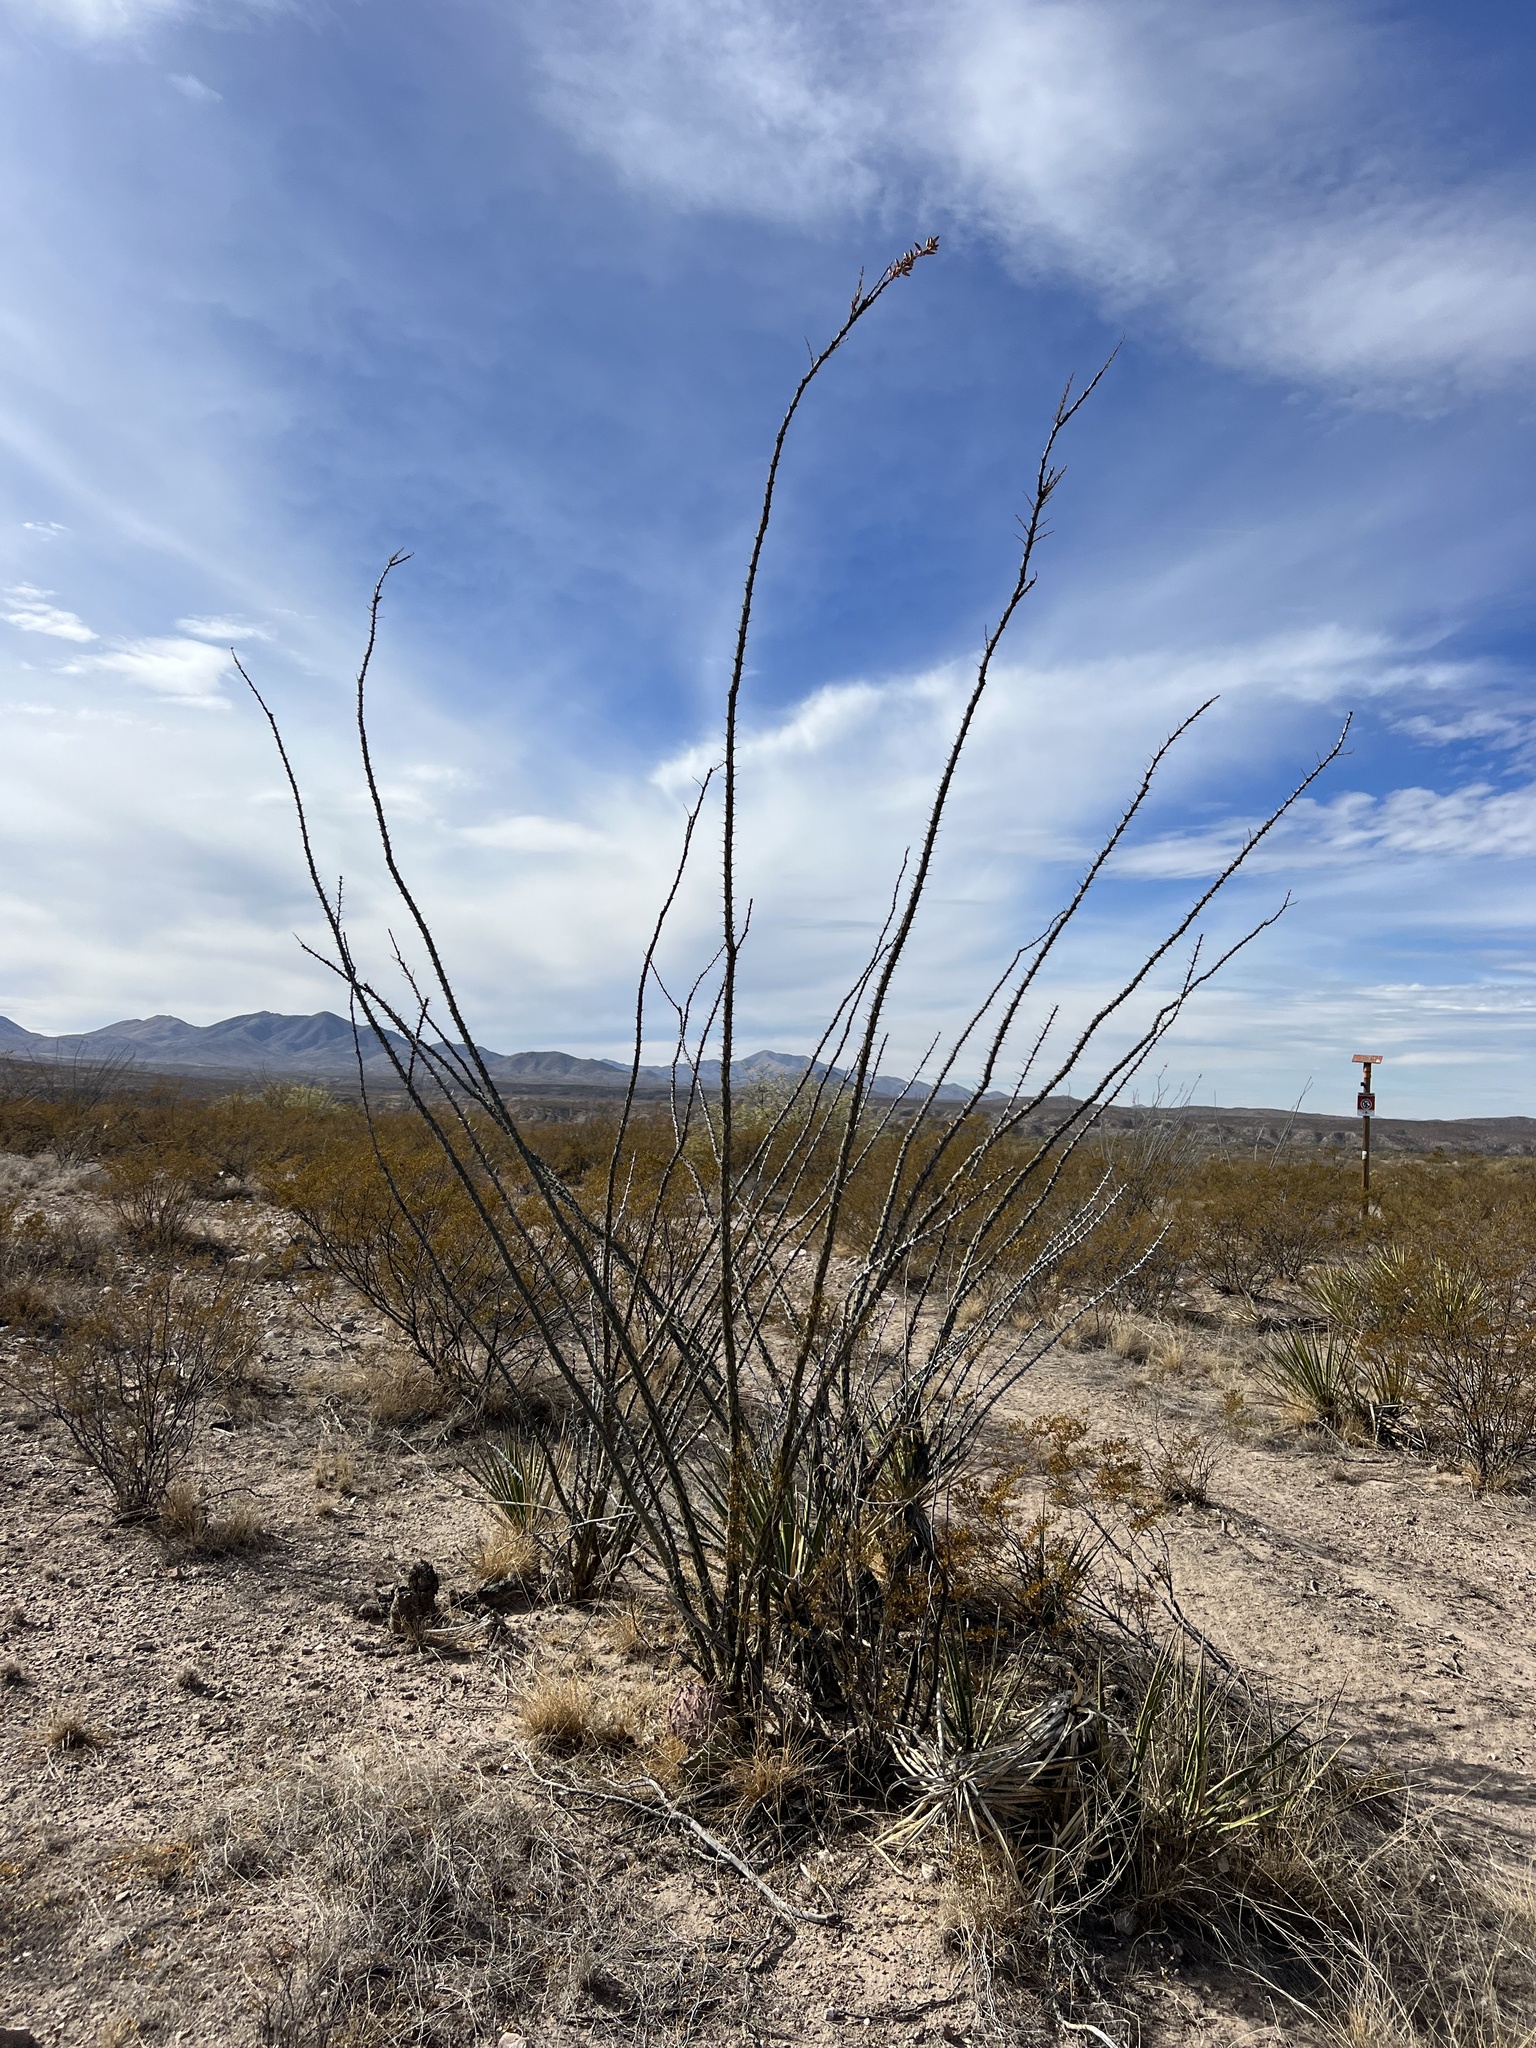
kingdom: Plantae
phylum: Tracheophyta
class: Magnoliopsida
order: Ericales
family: Fouquieriaceae
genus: Fouquieria
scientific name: Fouquieria splendens
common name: Vine-cactus
